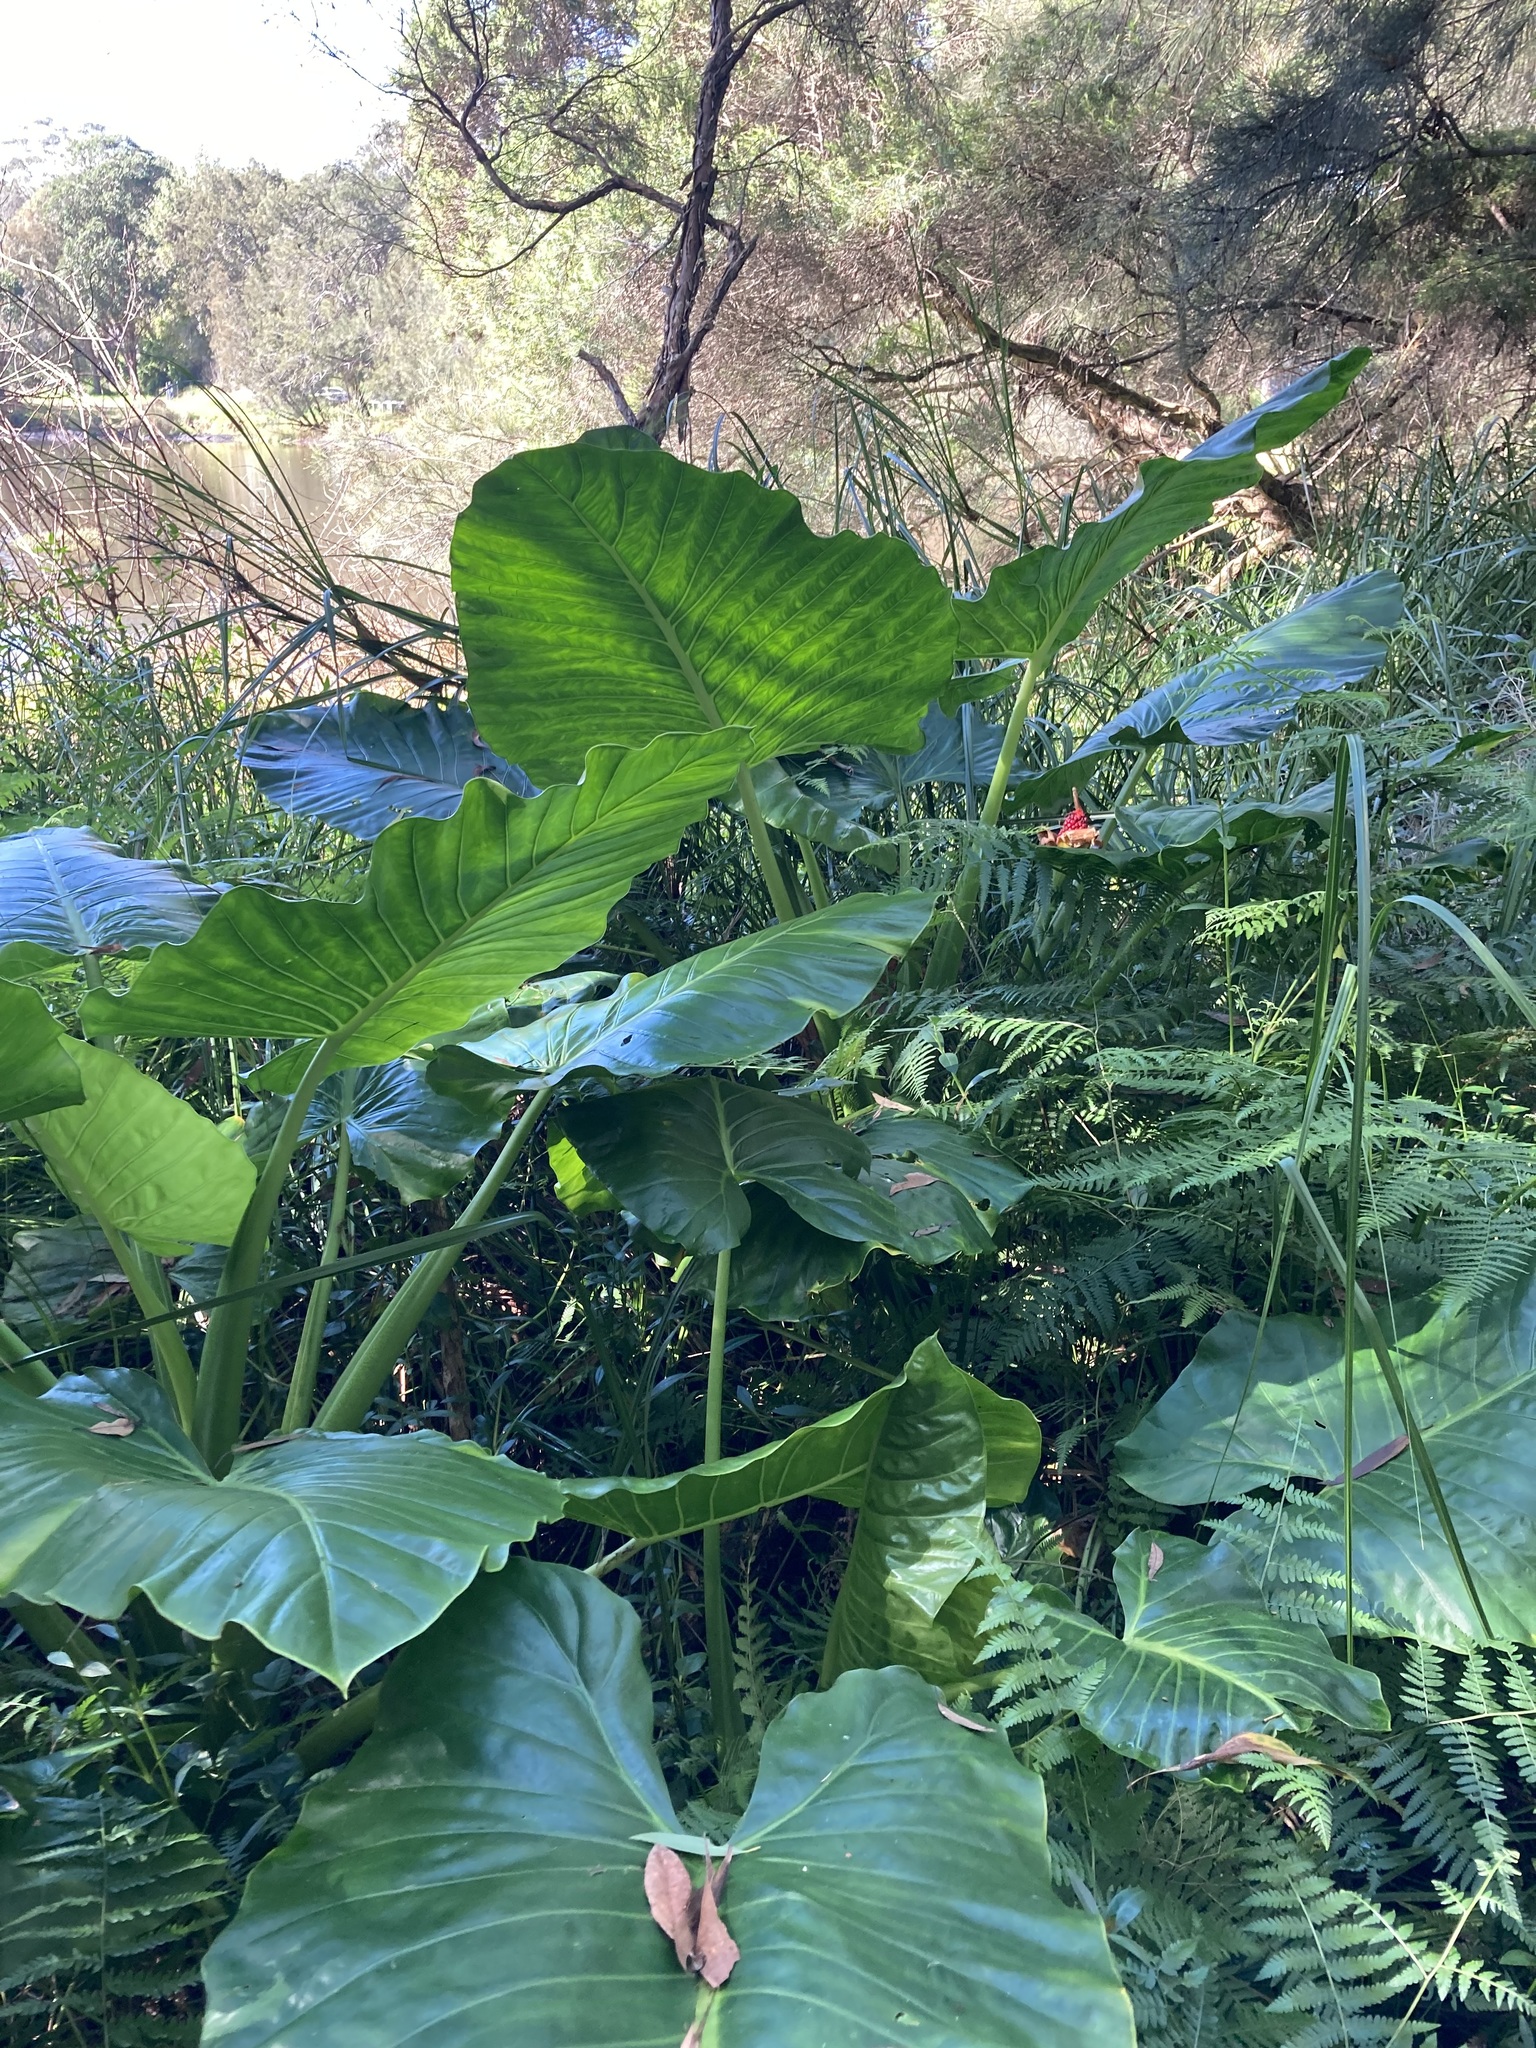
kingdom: Plantae
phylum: Tracheophyta
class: Liliopsida
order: Alismatales
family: Araceae
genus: Alocasia
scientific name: Alocasia brisbanensis
